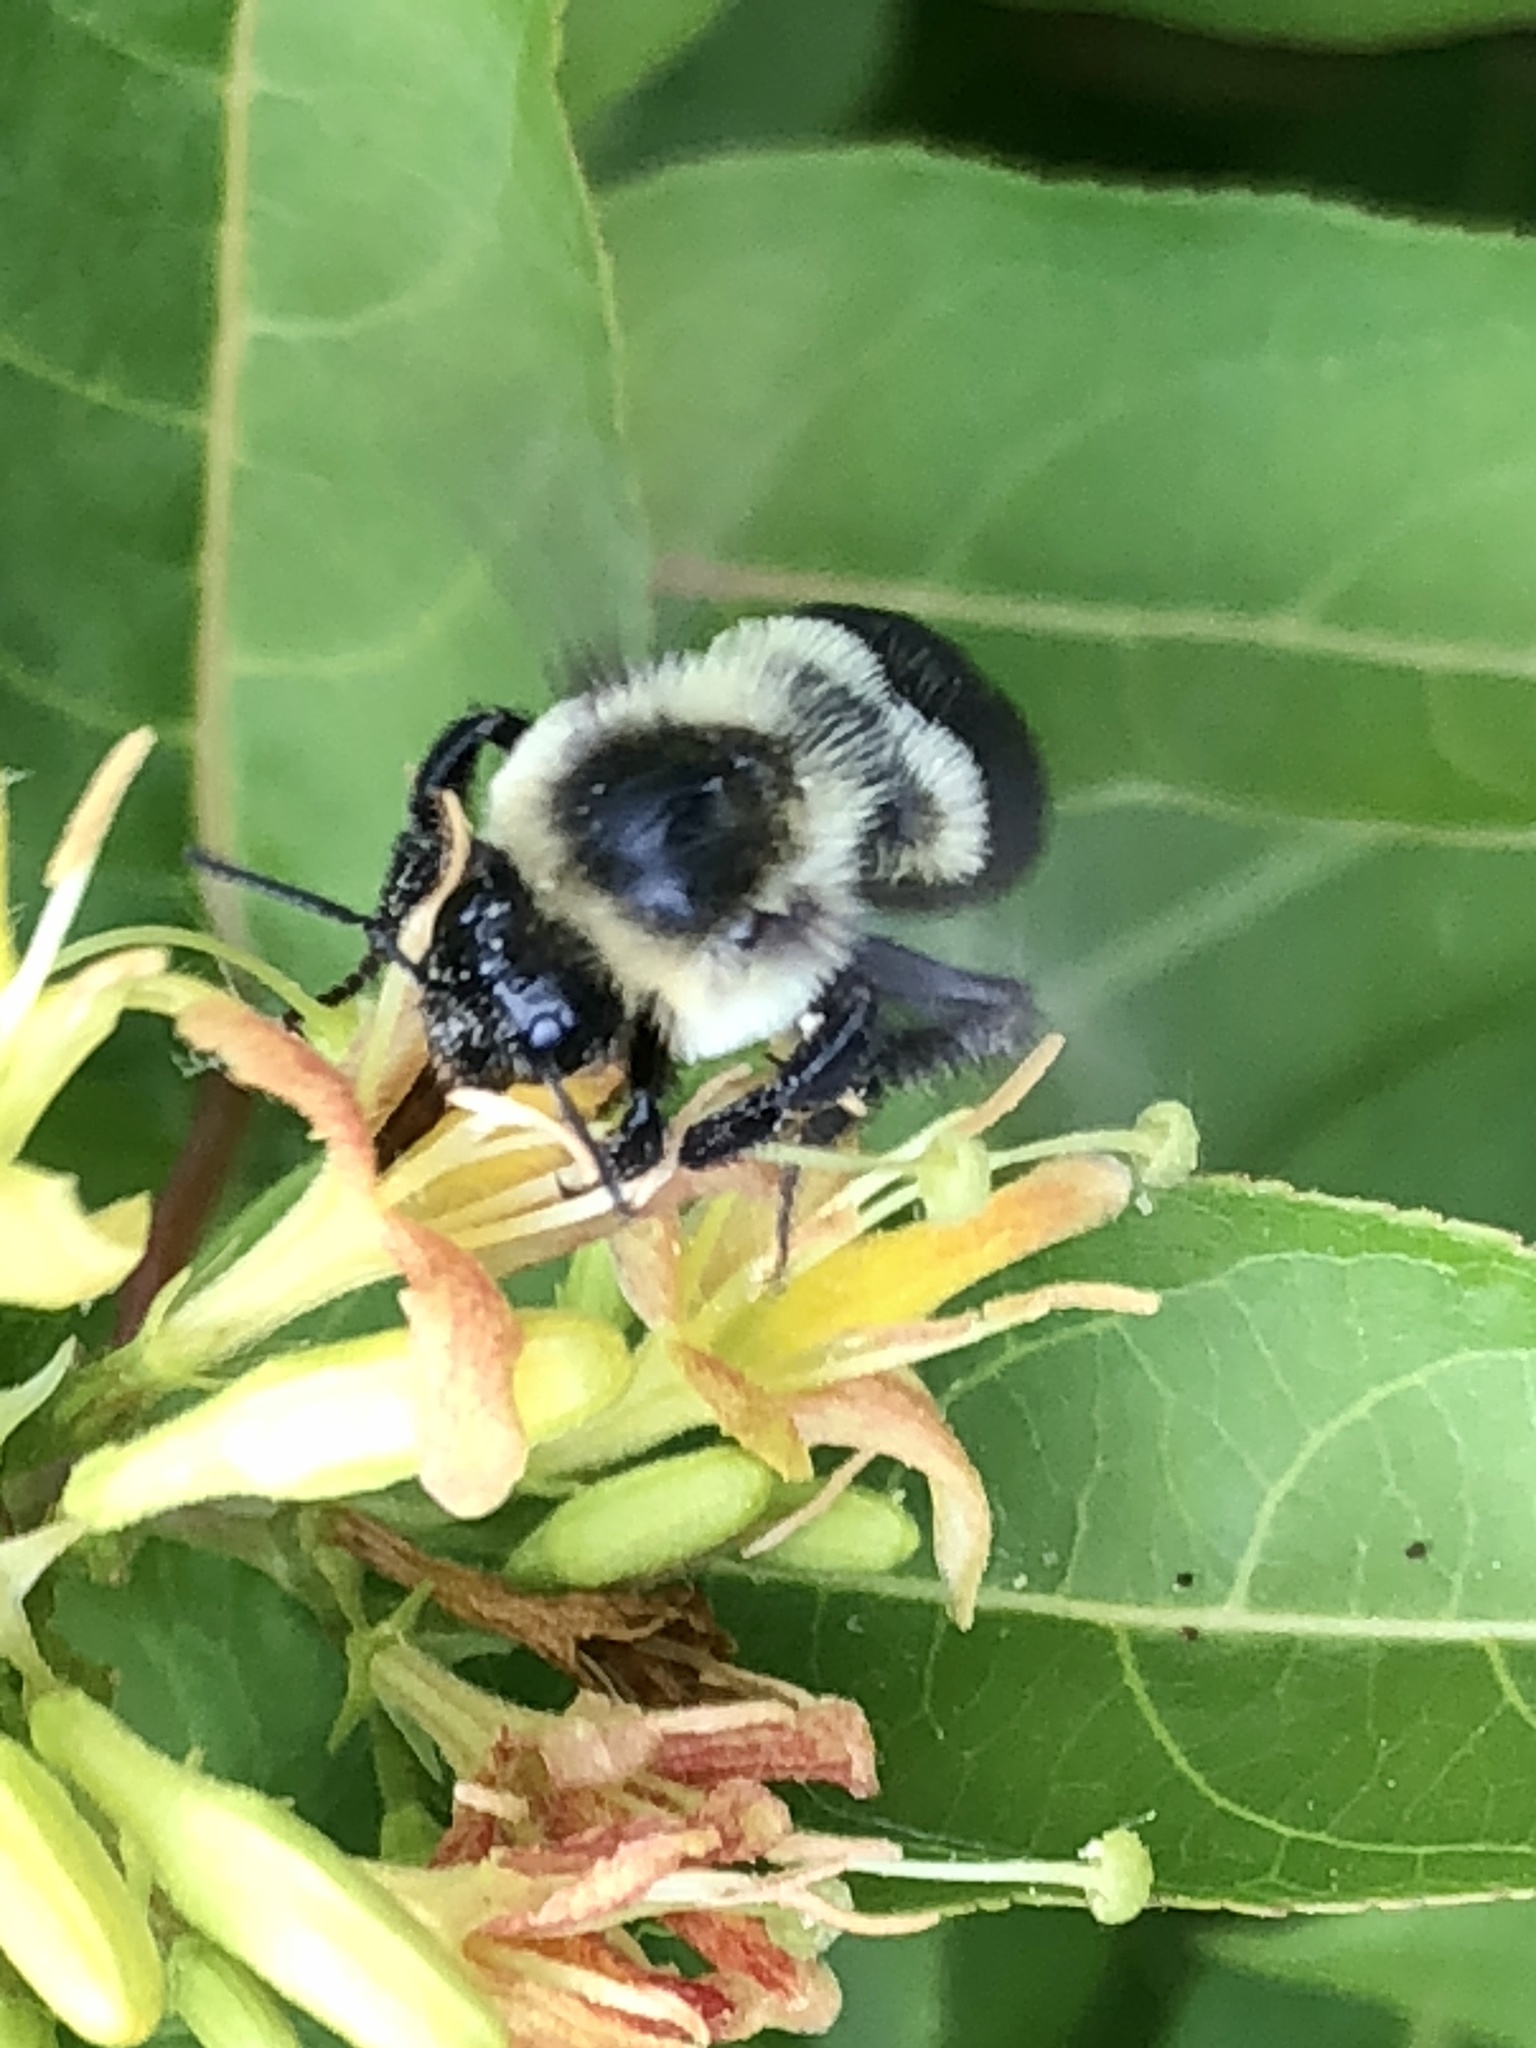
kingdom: Animalia
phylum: Arthropoda
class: Insecta
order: Hymenoptera
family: Apidae
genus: Bombus
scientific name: Bombus impatiens
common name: Common eastern bumble bee
